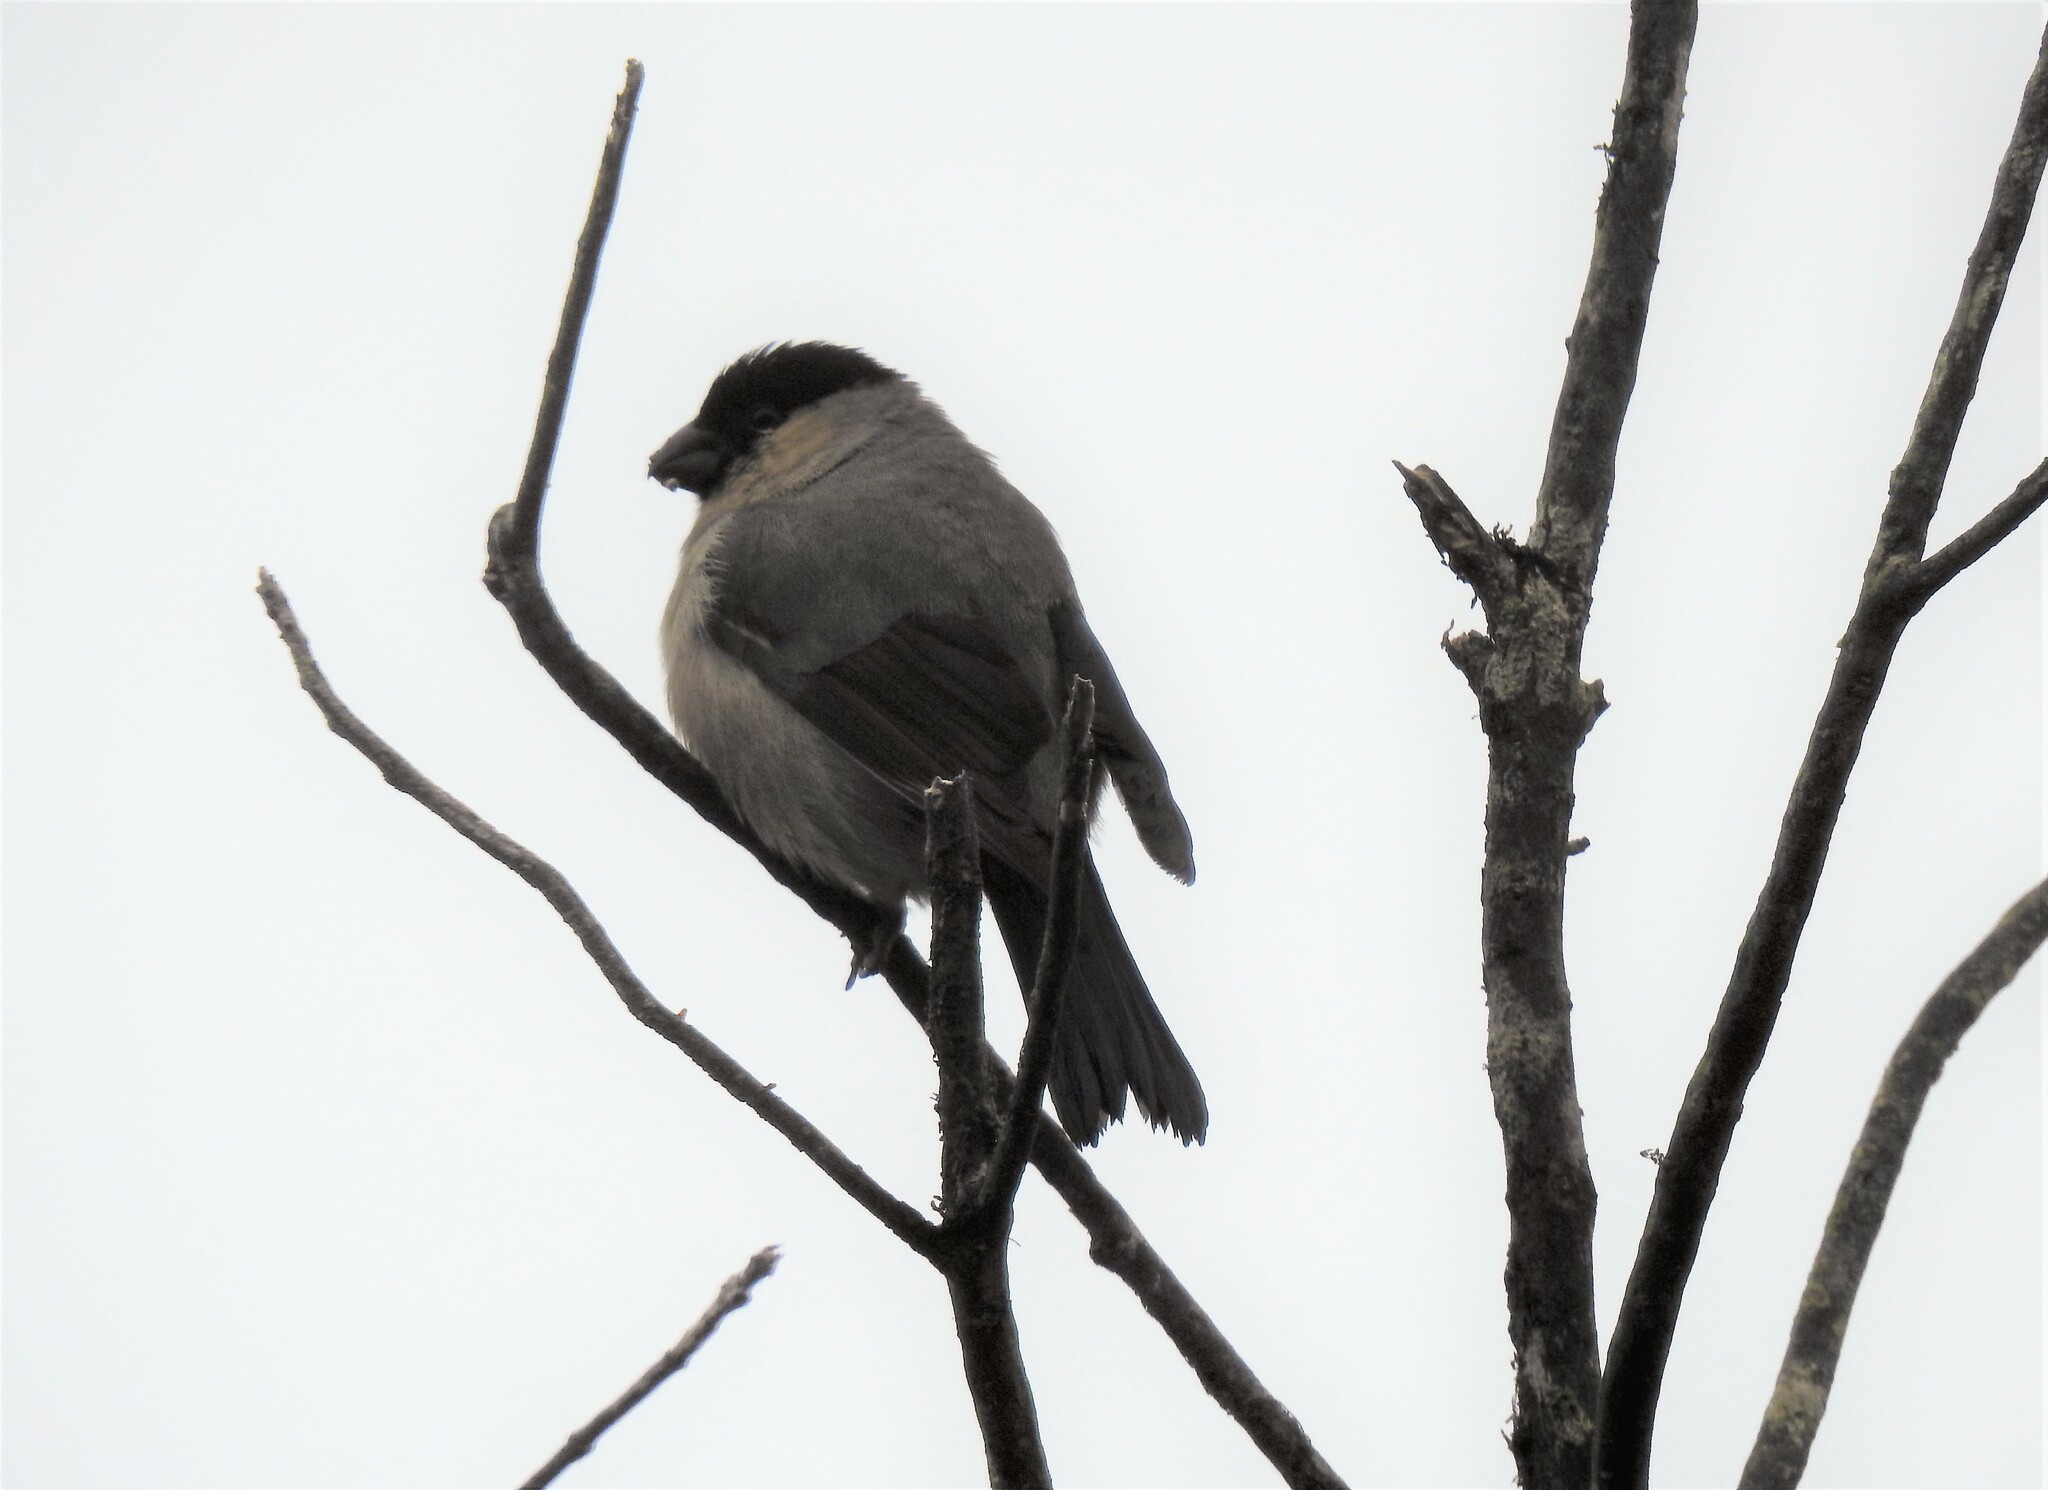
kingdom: Animalia
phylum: Chordata
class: Aves
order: Passeriformes
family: Fringillidae
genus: Pyrrhula
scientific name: Pyrrhula murina
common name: Azores bullfinch
